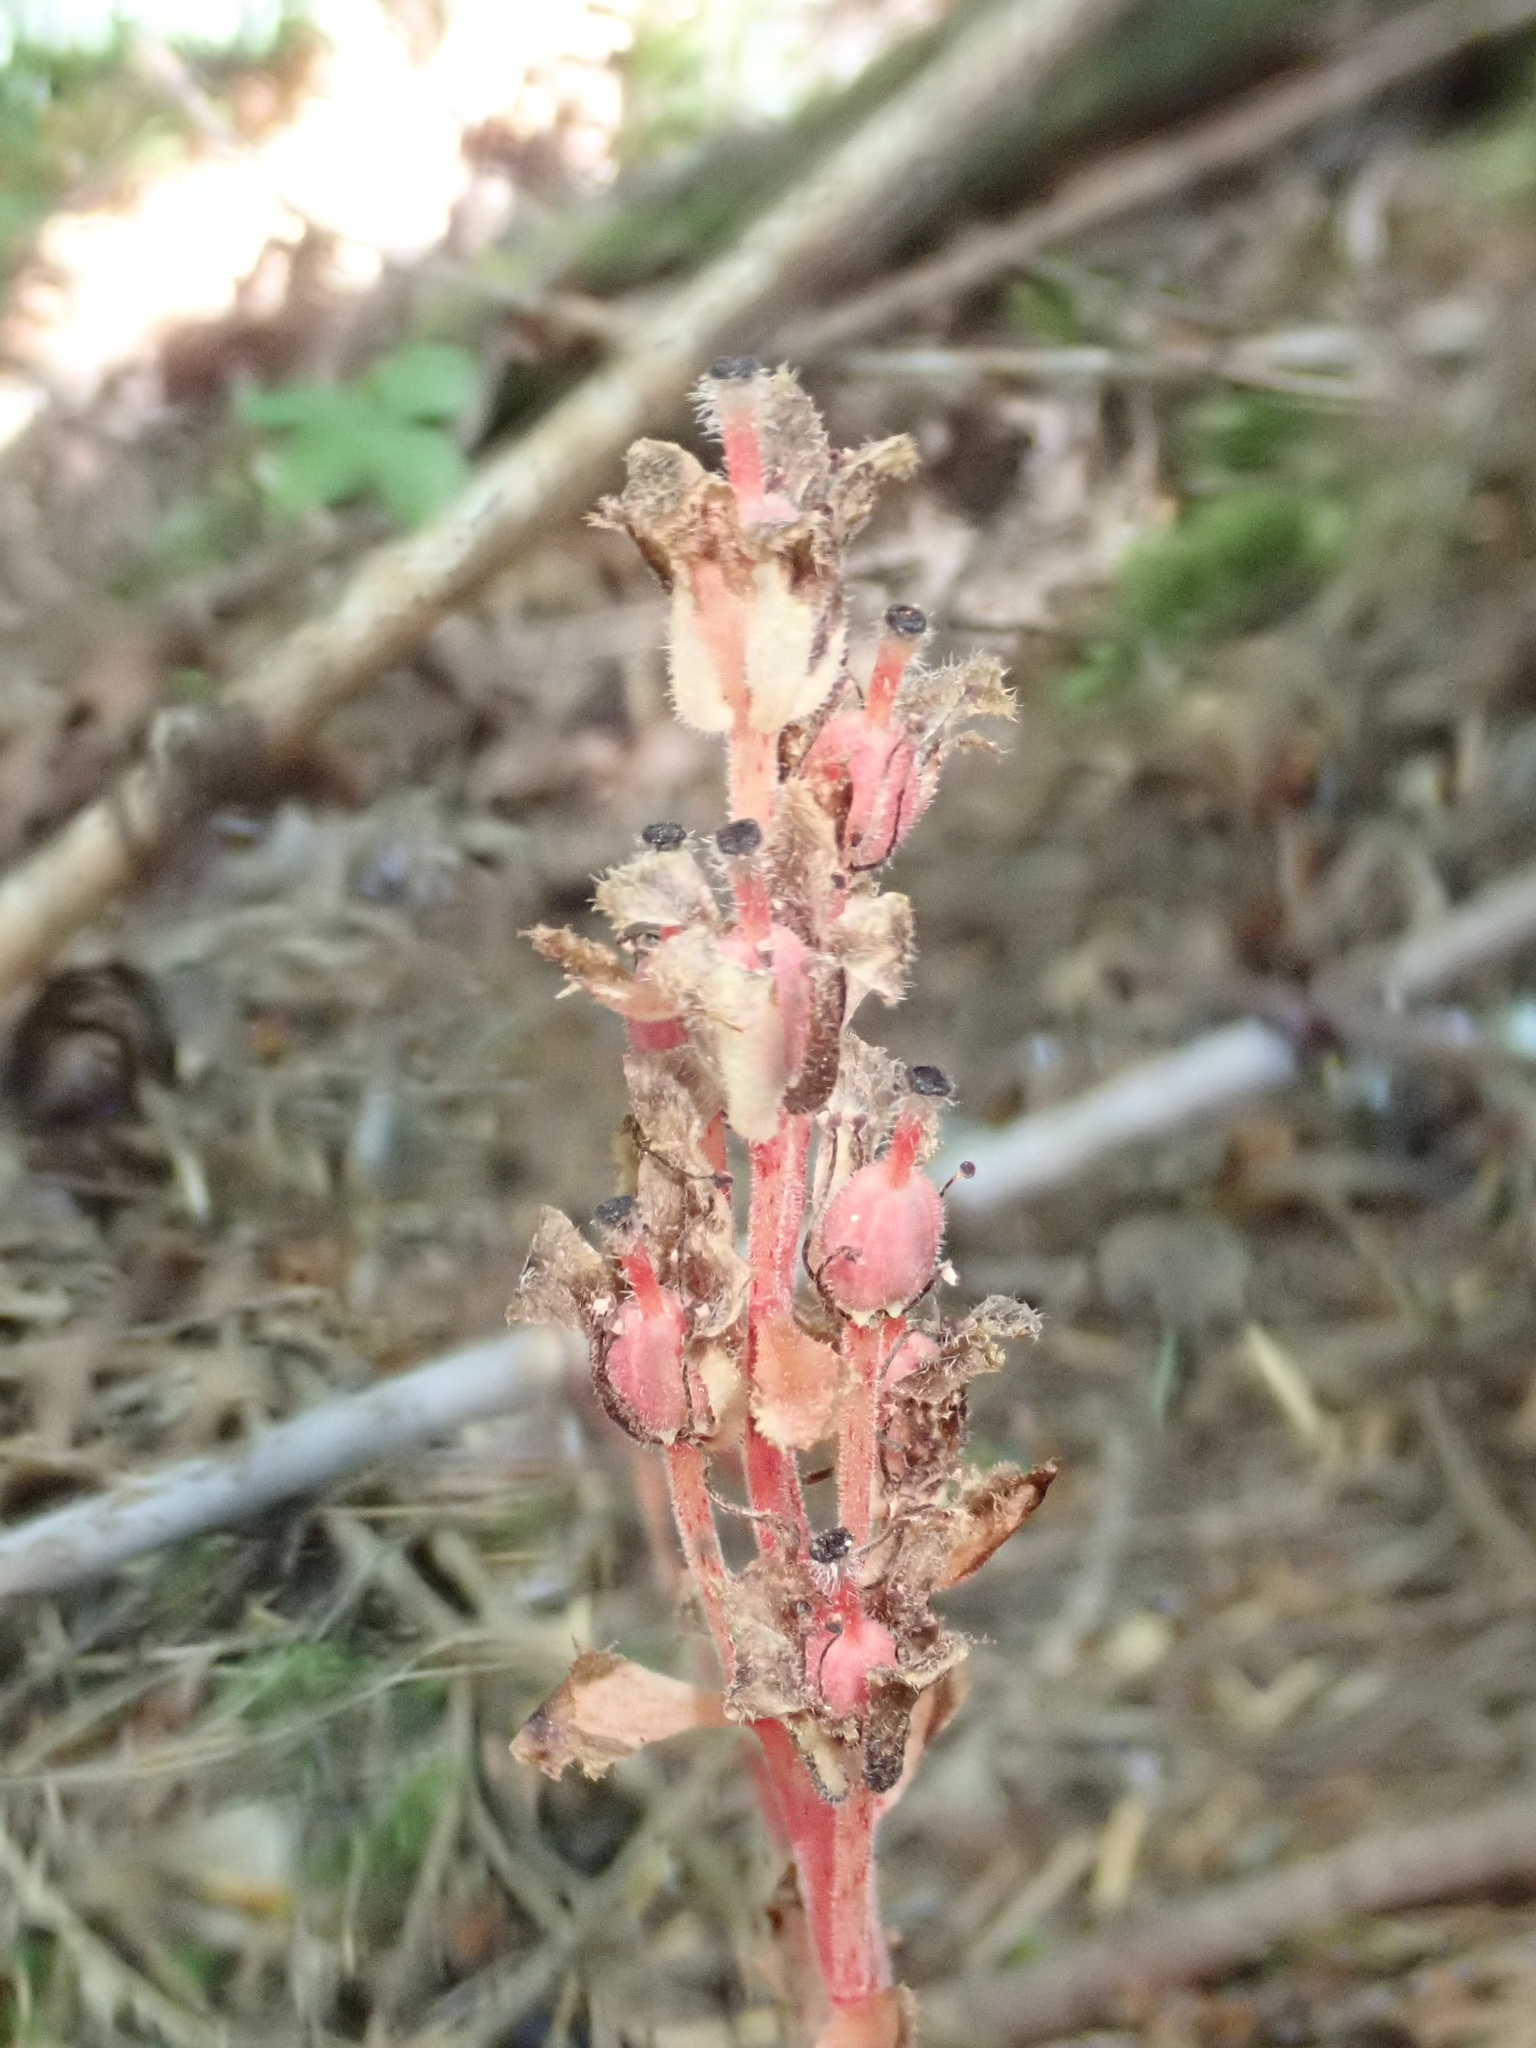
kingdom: Plantae
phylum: Tracheophyta
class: Magnoliopsida
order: Ericales
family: Ericaceae
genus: Hypopitys
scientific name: Hypopitys monotropa
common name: Yellow bird's-nest
